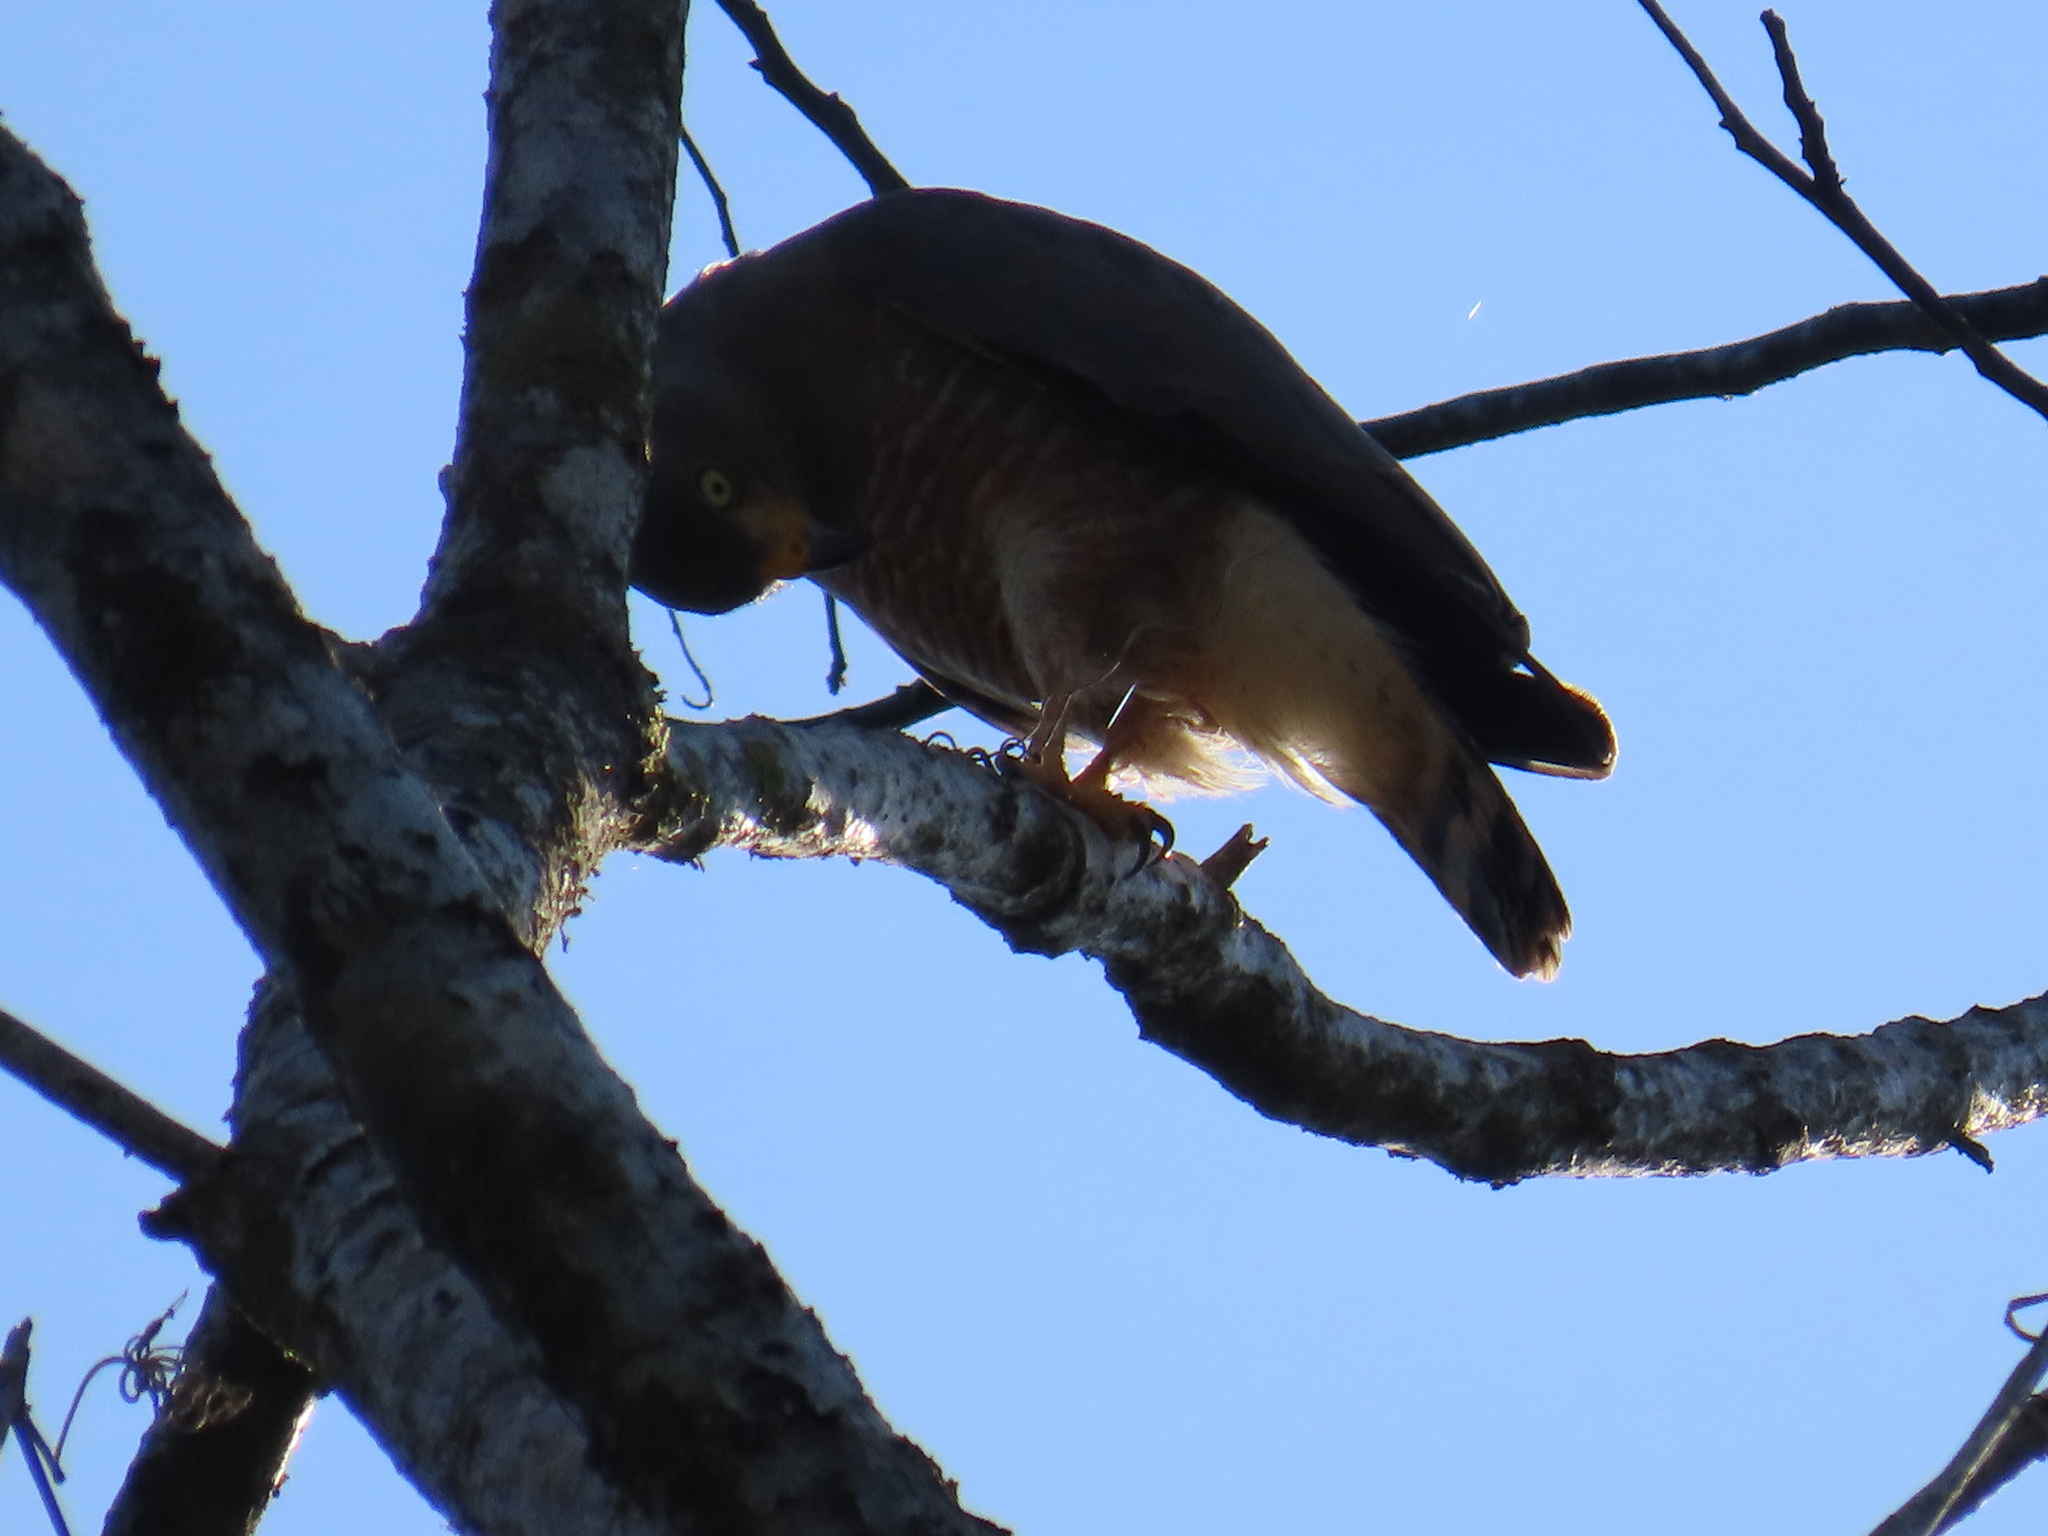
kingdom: Animalia
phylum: Chordata
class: Aves
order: Accipitriformes
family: Accipitridae
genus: Rupornis
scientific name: Rupornis magnirostris
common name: Roadside hawk
